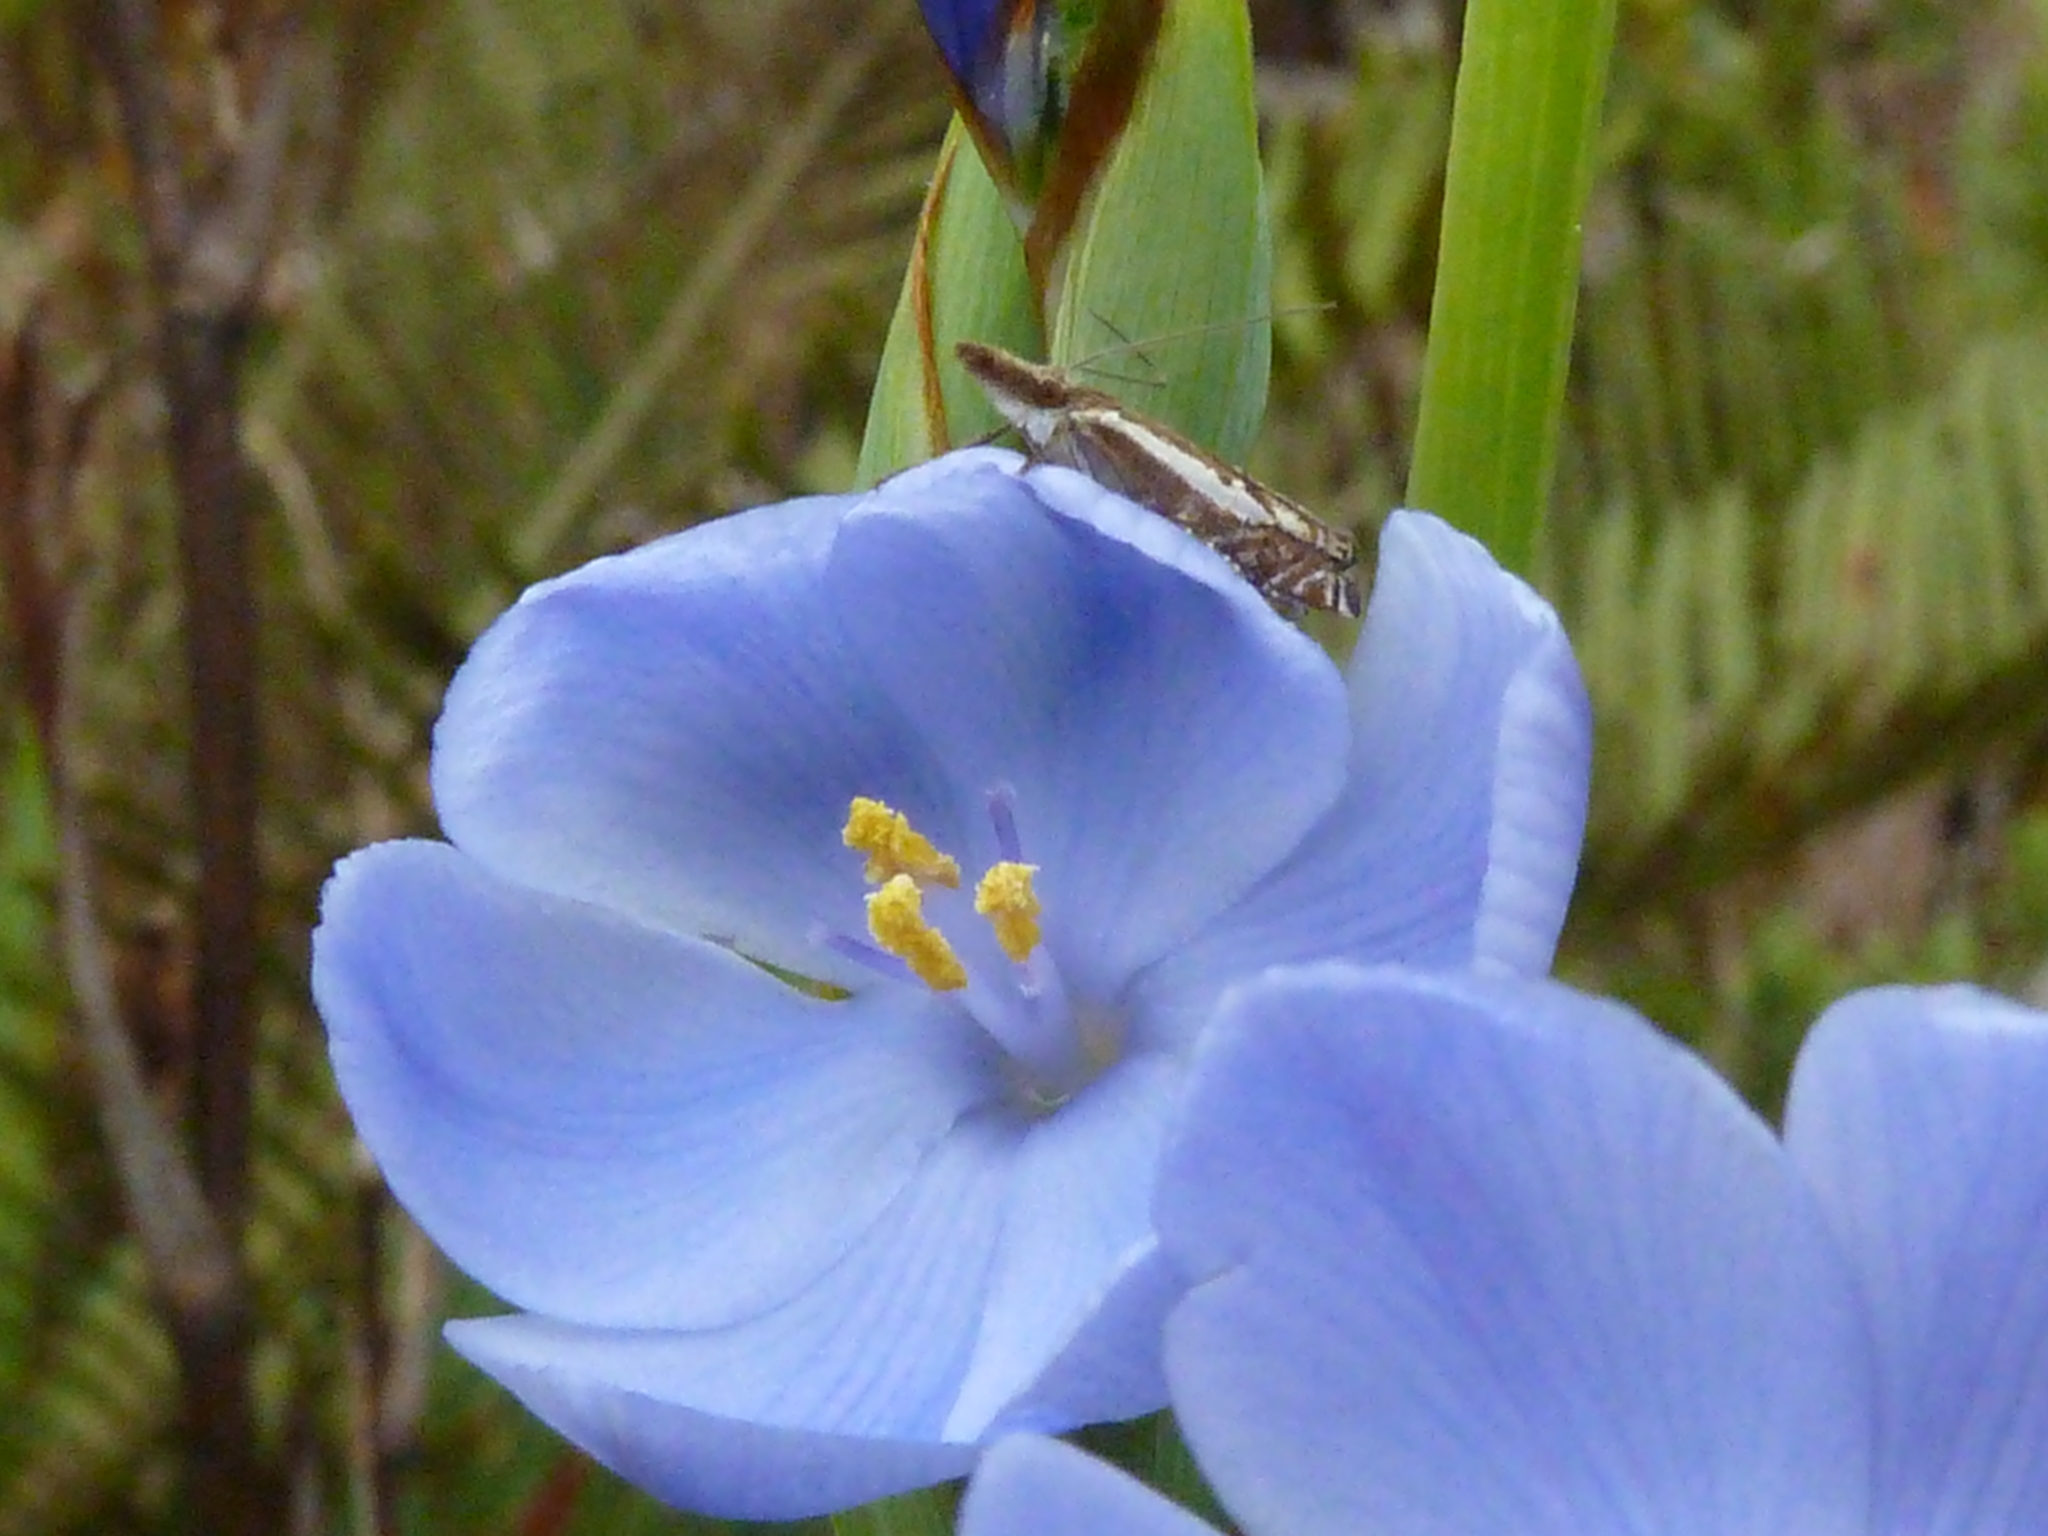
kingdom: Plantae
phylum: Tracheophyta
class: Liliopsida
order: Asparagales
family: Iridaceae
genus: Orthrosanthus
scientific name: Orthrosanthus chimboracensis
